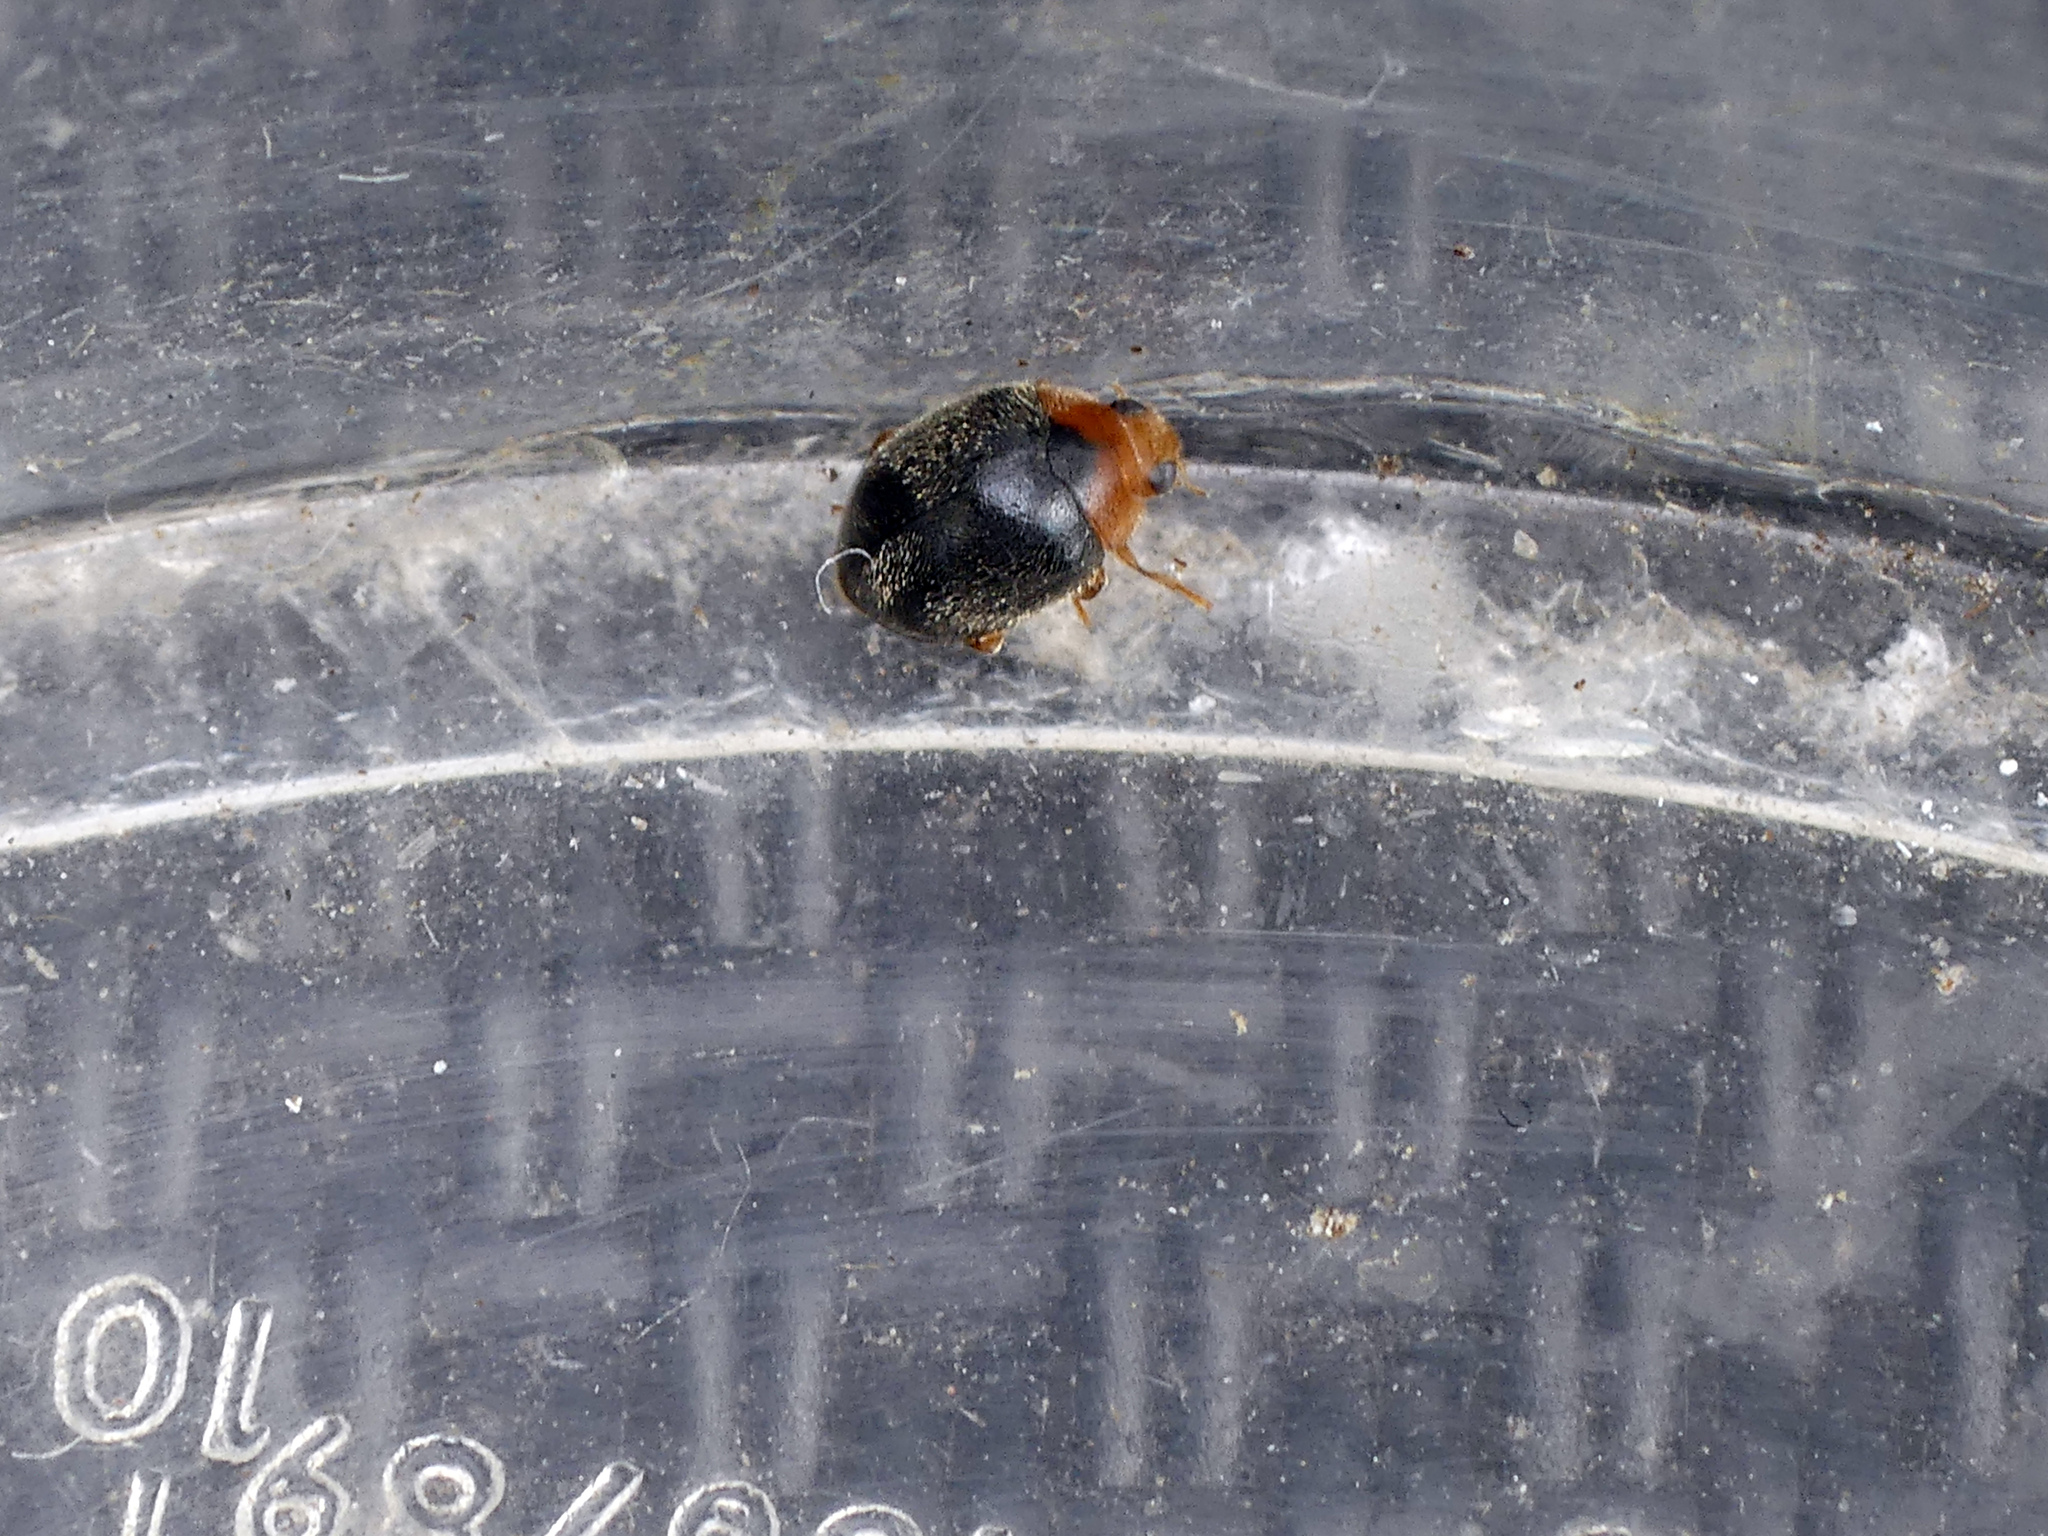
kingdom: Animalia
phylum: Arthropoda
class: Insecta
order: Coleoptera
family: Coccinellidae
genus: Scymnus
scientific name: Scymnus rubromaculatus
